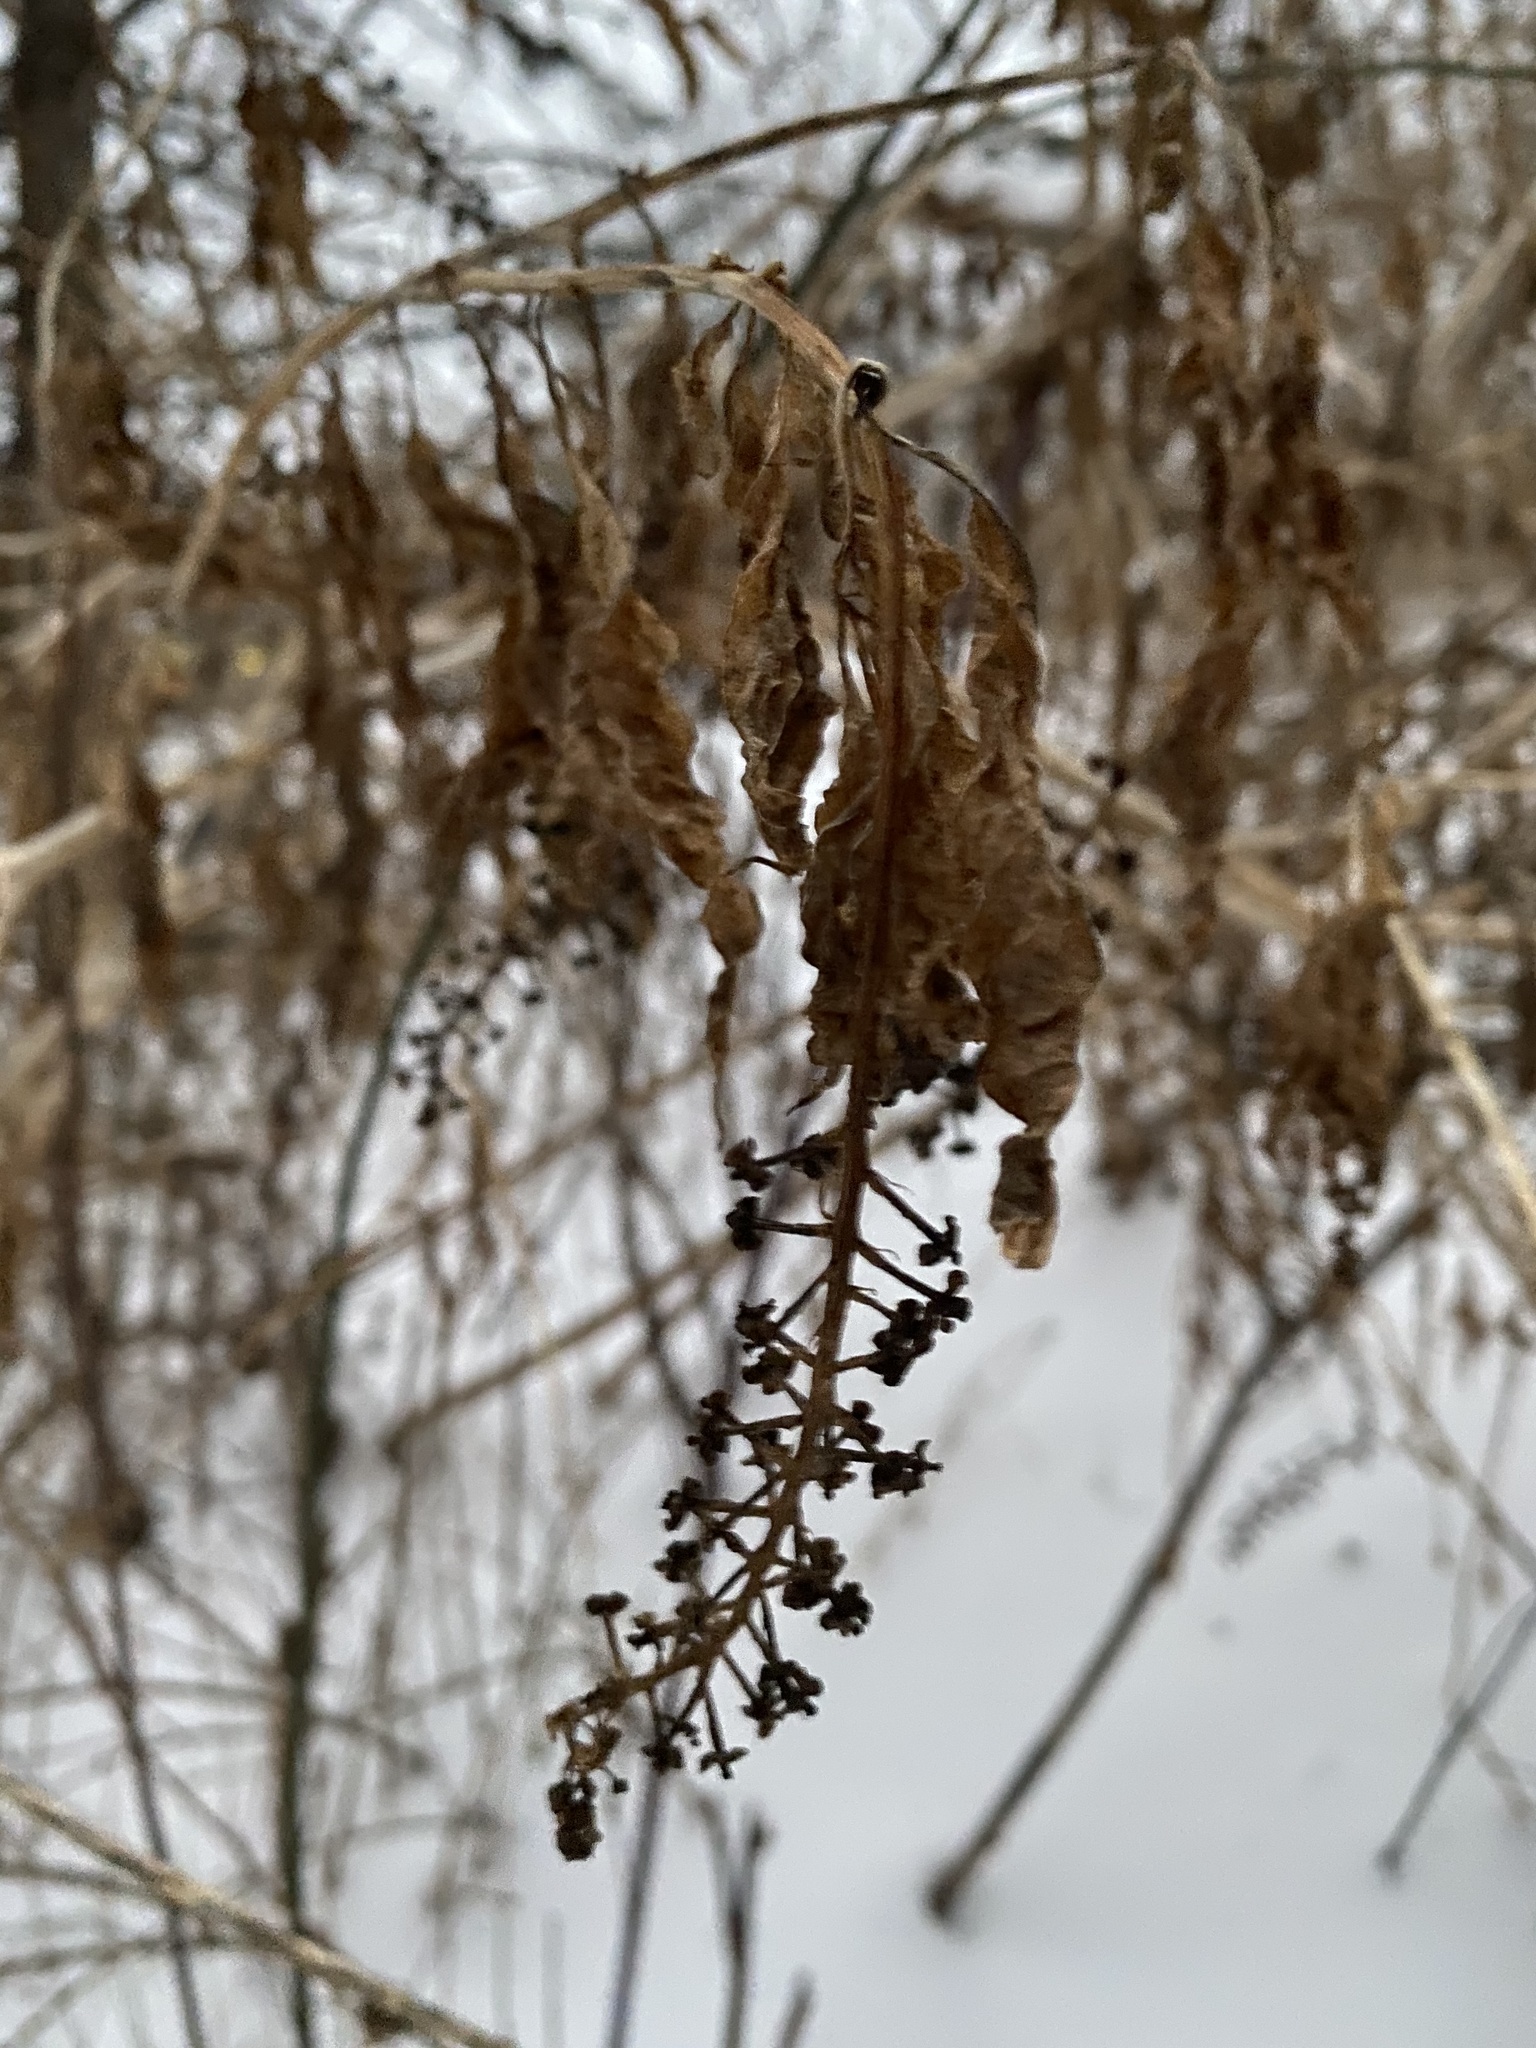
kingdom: Plantae
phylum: Tracheophyta
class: Magnoliopsida
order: Caryophyllales
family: Phytolaccaceae
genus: Phytolacca
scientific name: Phytolacca americana
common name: American pokeweed
